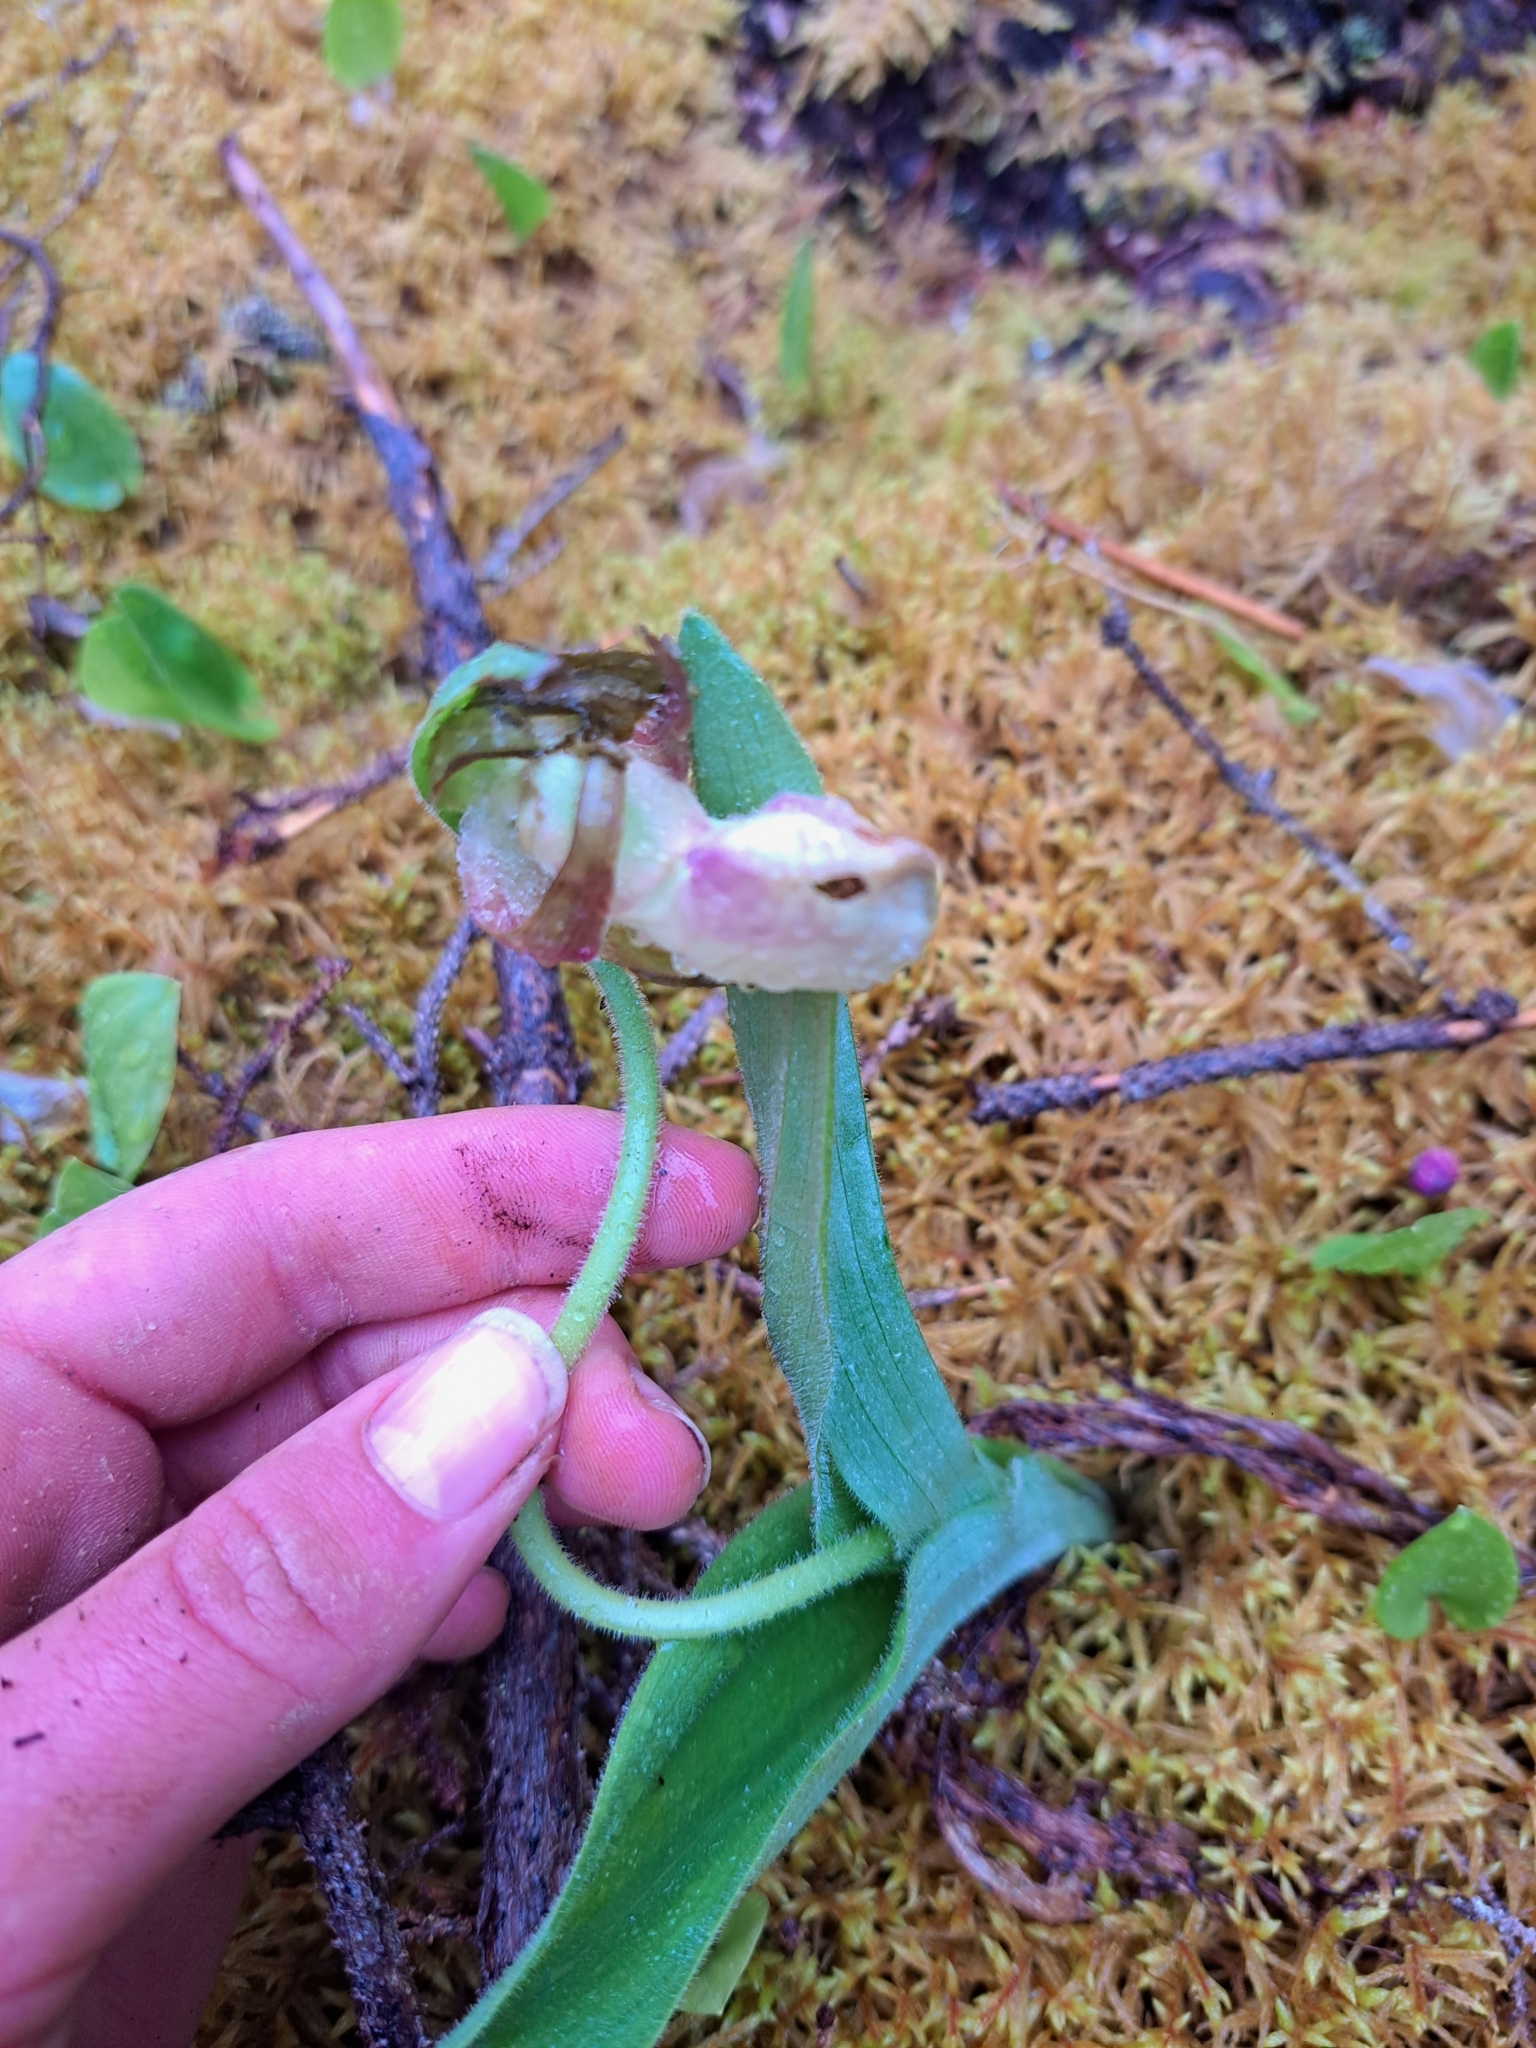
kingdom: Plantae
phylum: Tracheophyta
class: Liliopsida
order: Asparagales
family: Orchidaceae
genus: Cypripedium
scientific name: Cypripedium acaule
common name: Pink lady's-slipper
